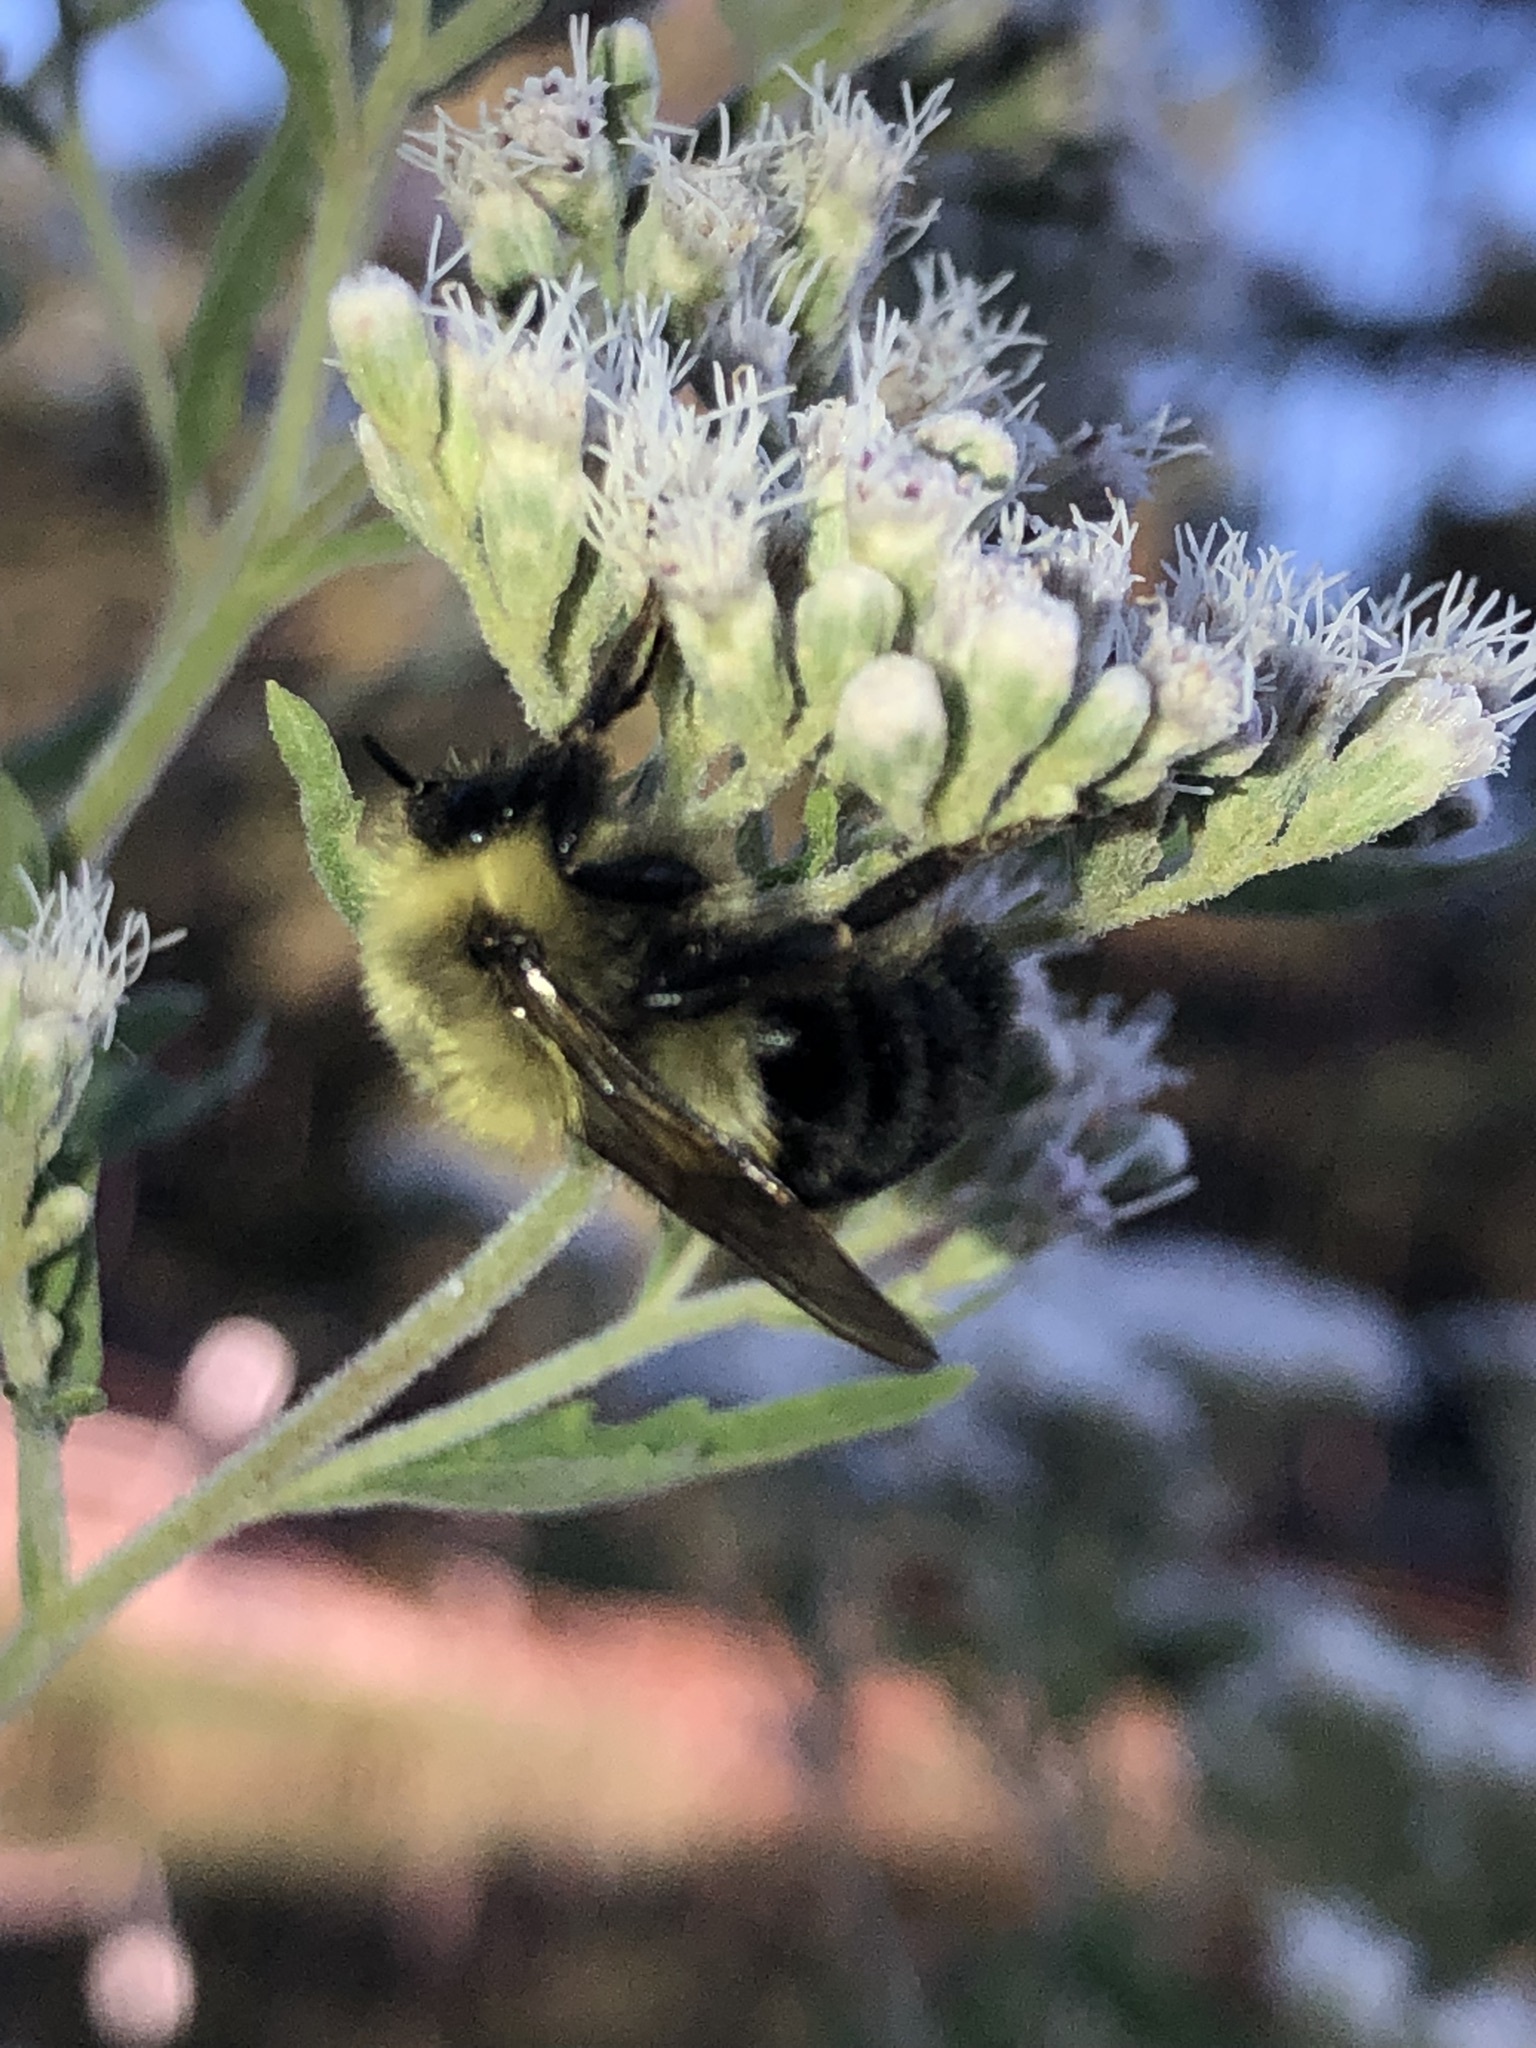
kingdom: Animalia
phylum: Arthropoda
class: Insecta
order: Hymenoptera
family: Apidae
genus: Bombus
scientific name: Bombus impatiens
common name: Common eastern bumble bee
